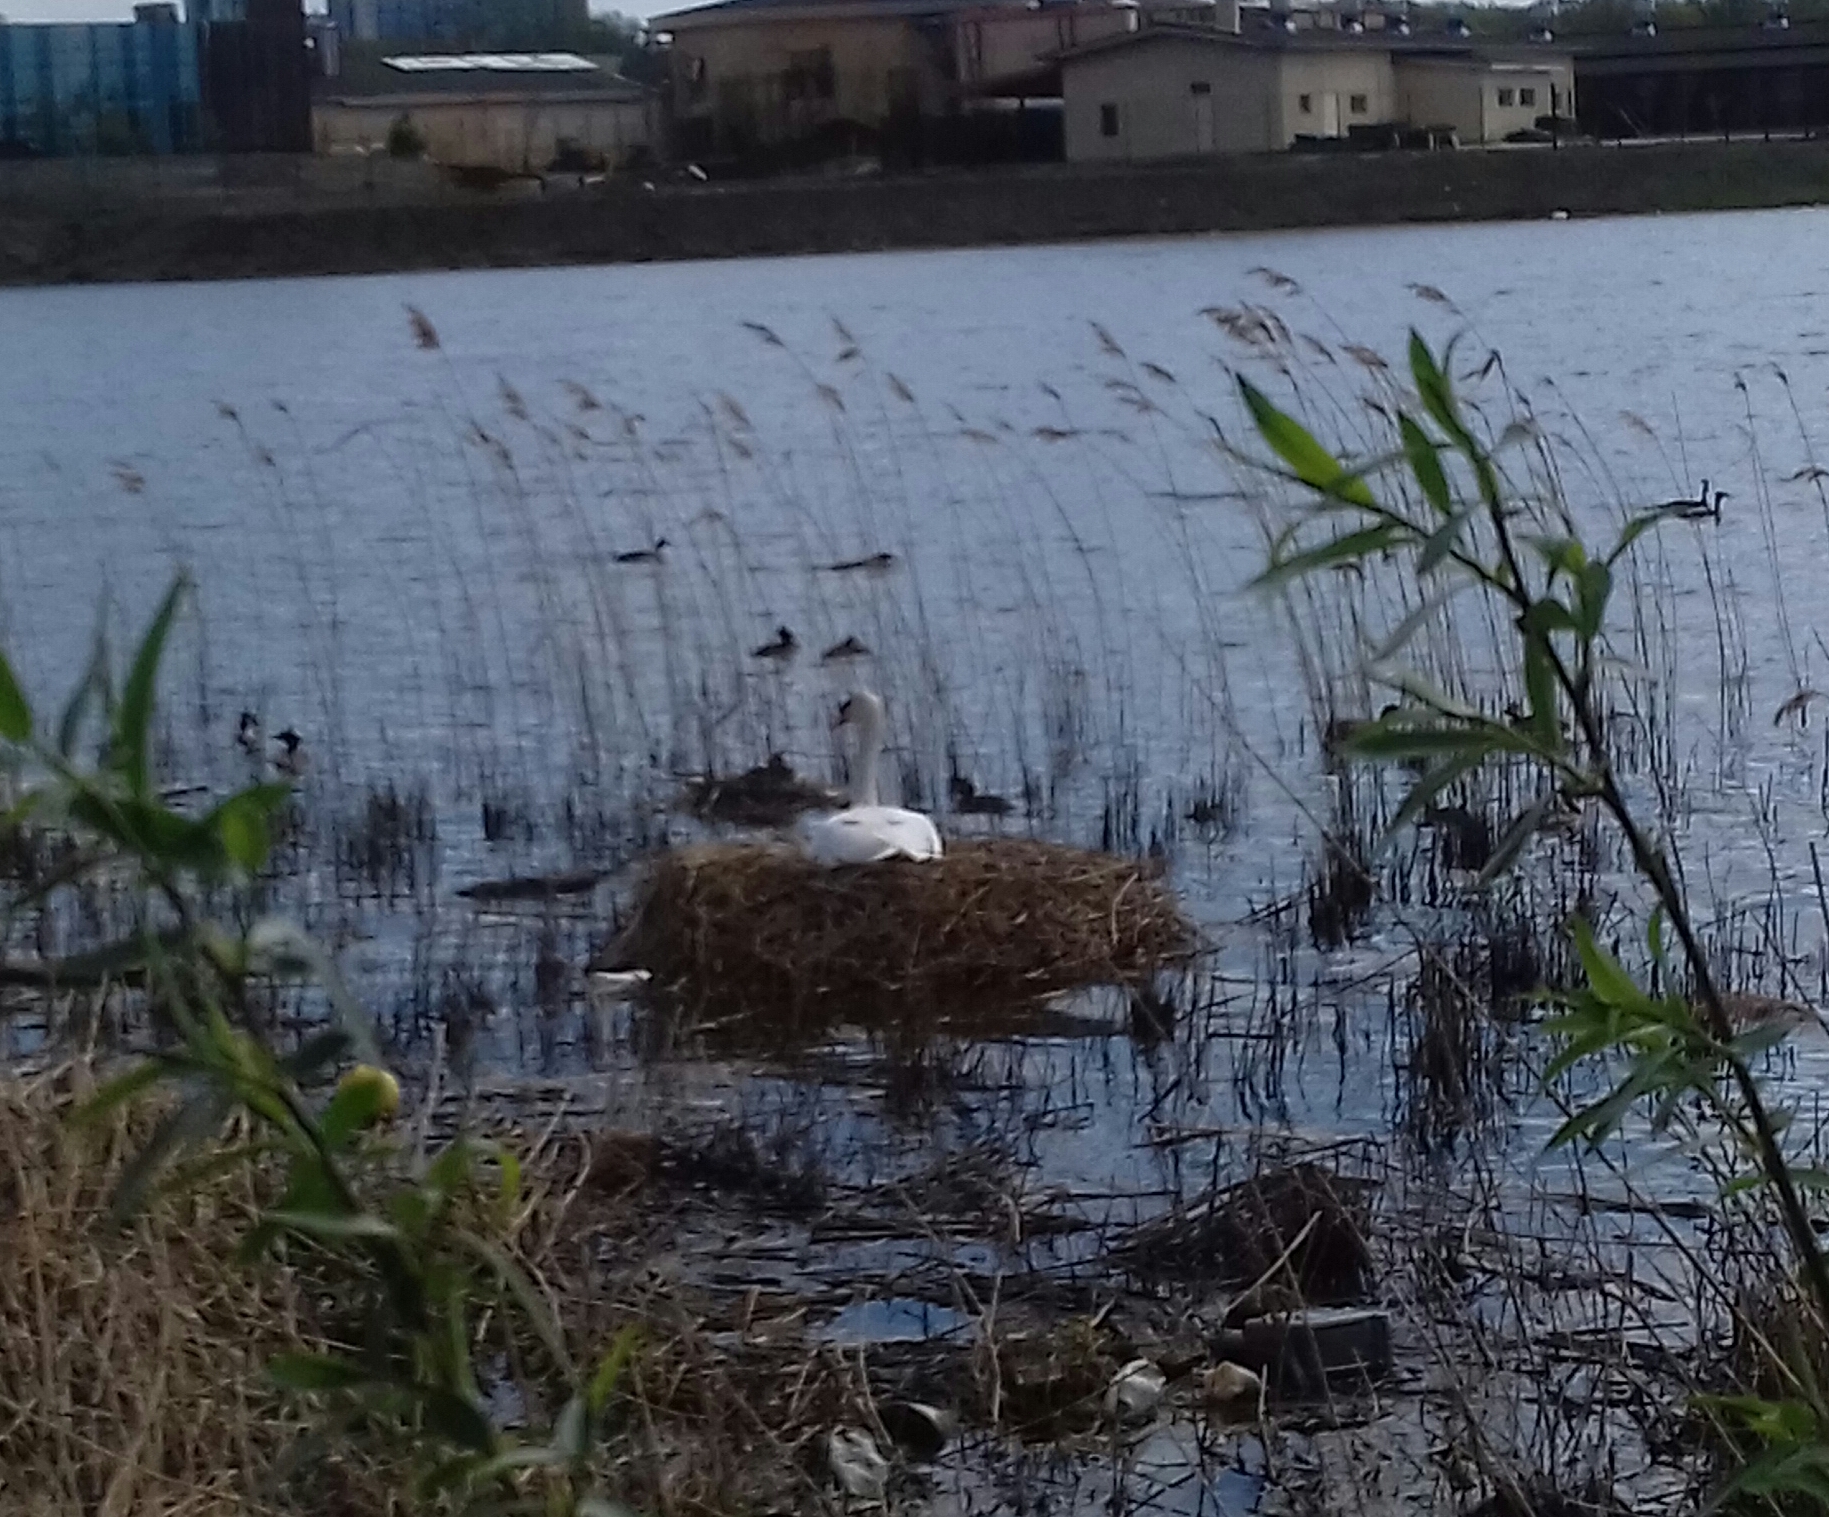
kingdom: Animalia
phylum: Chordata
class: Aves
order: Anseriformes
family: Anatidae
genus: Cygnus
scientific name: Cygnus olor
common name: Mute swan
